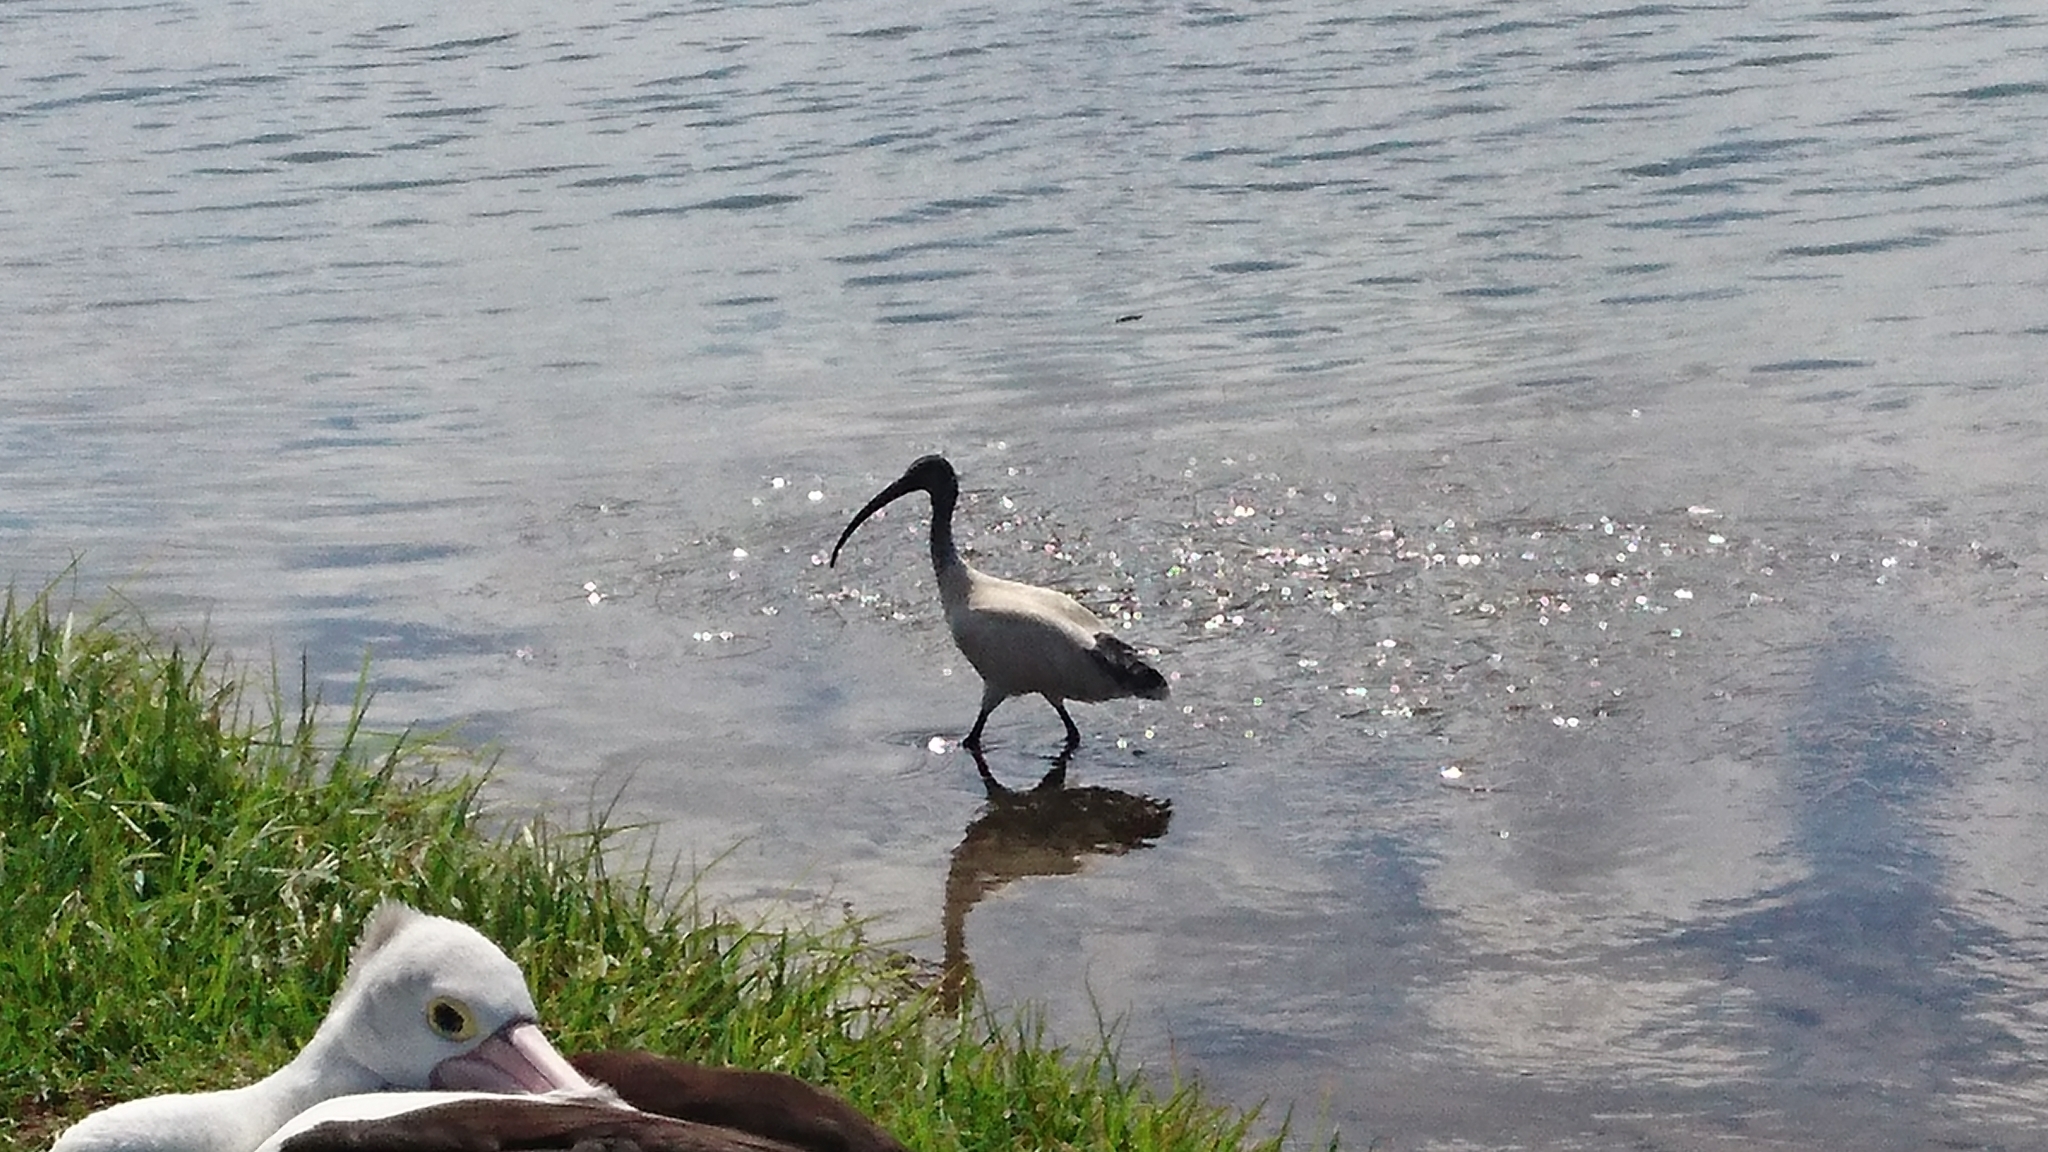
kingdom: Animalia
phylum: Chordata
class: Aves
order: Pelecaniformes
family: Threskiornithidae
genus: Threskiornis
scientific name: Threskiornis molucca
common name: Australian white ibis
